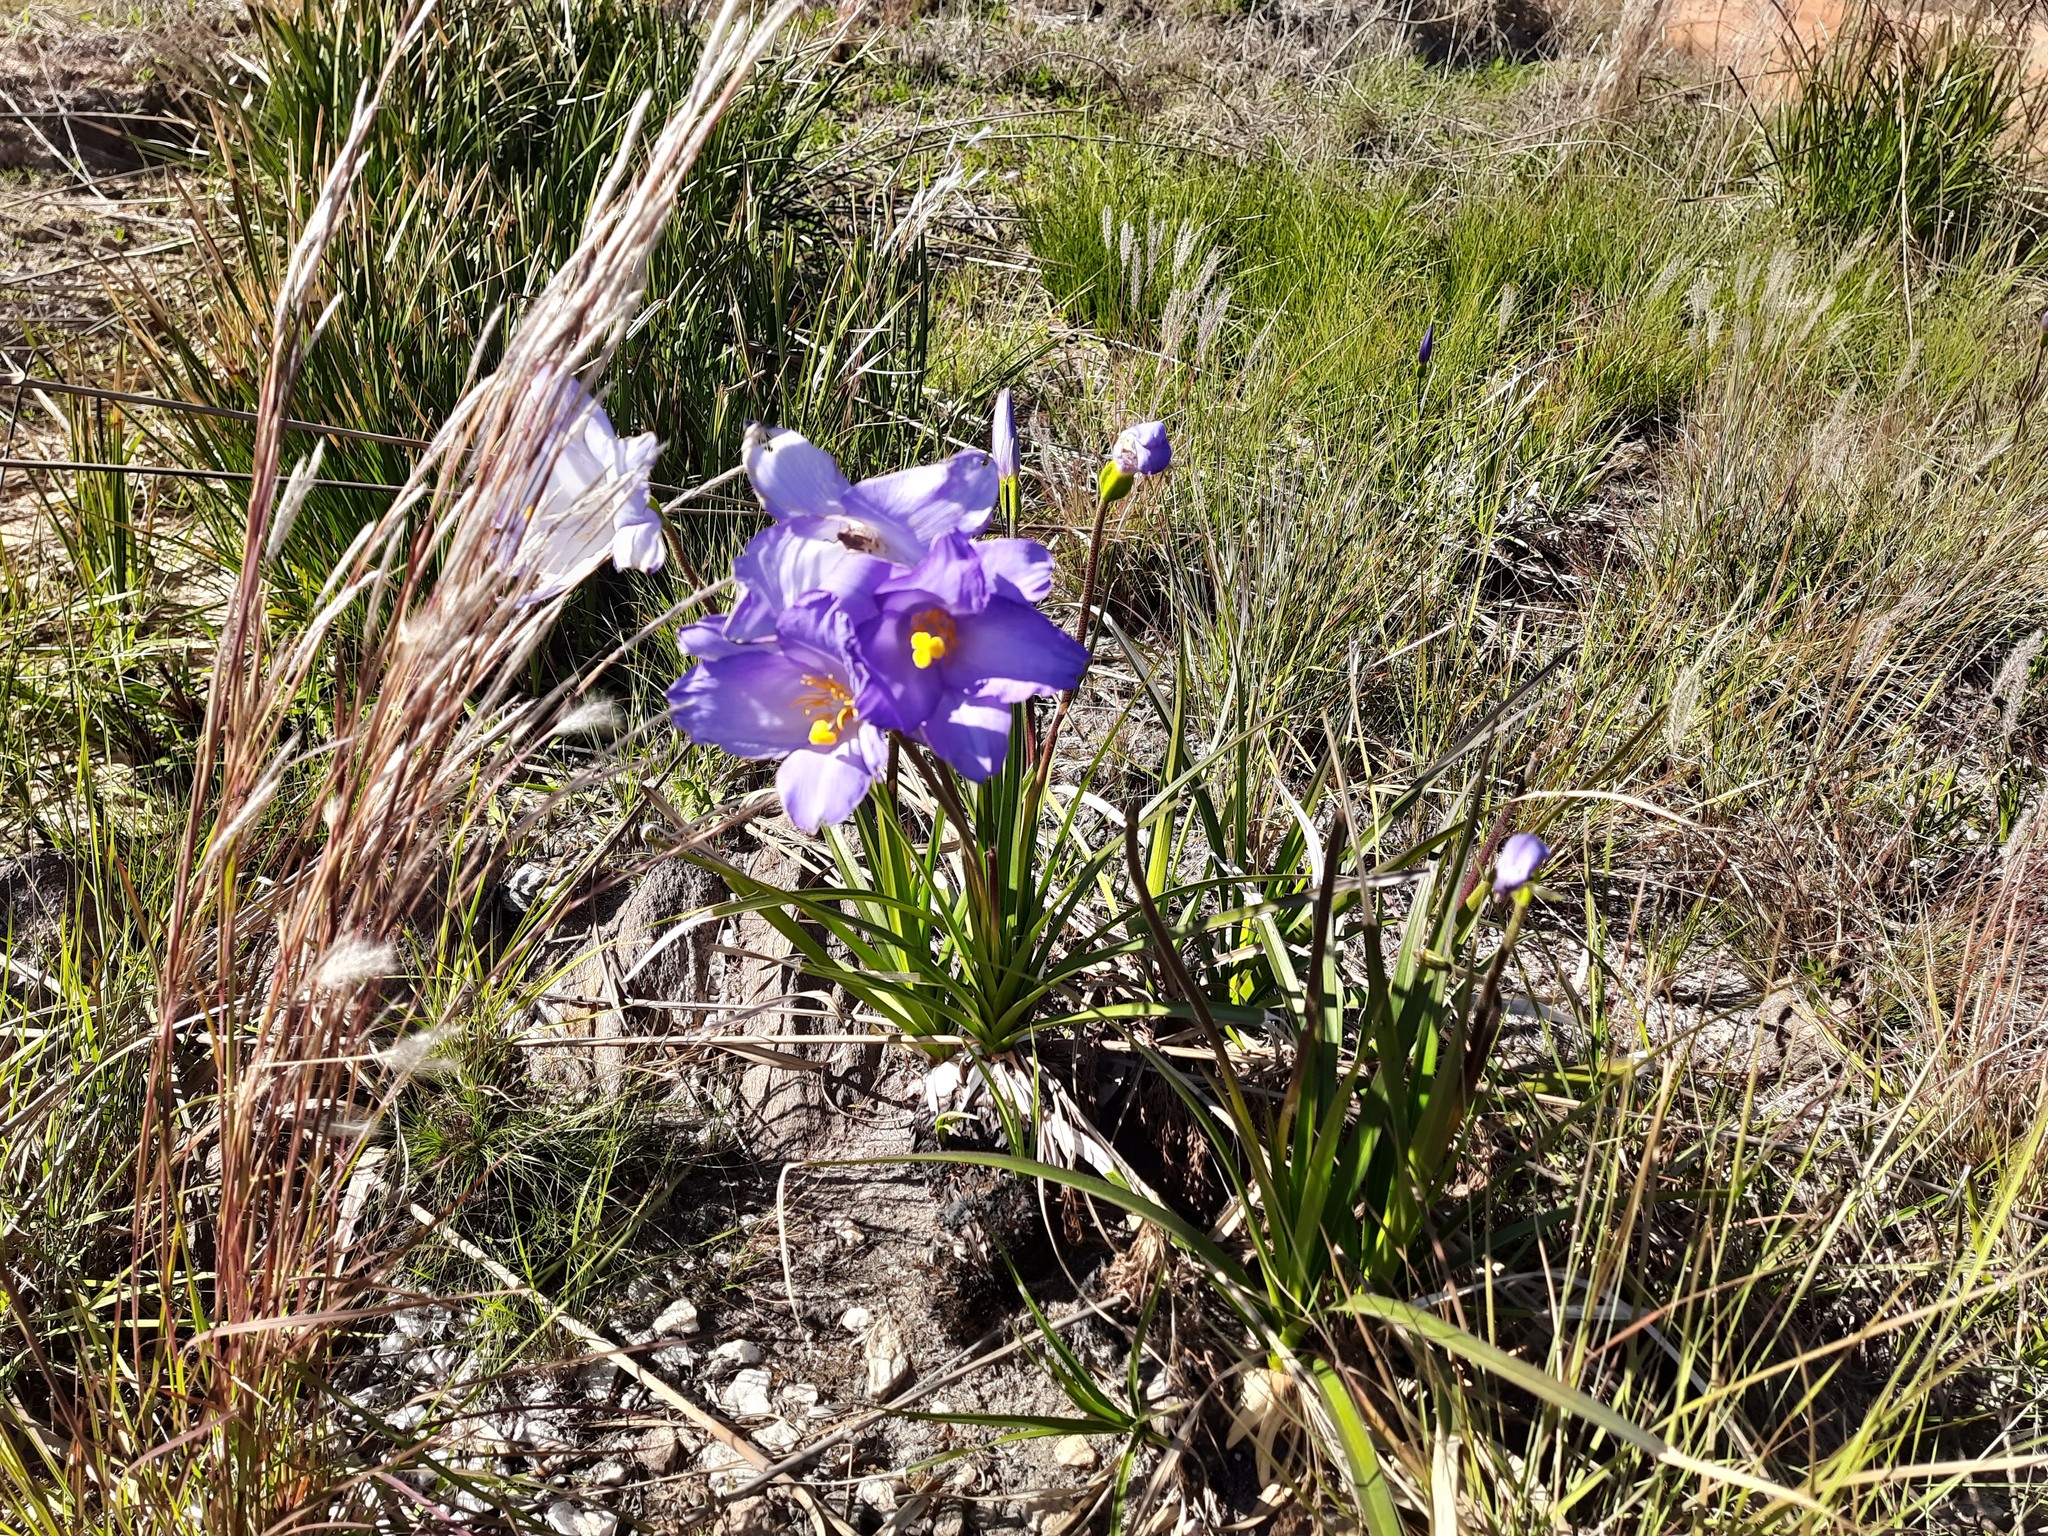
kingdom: Plantae
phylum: Tracheophyta
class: Liliopsida
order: Pandanales
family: Velloziaceae
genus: Vellozia
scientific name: Vellozia squamata
